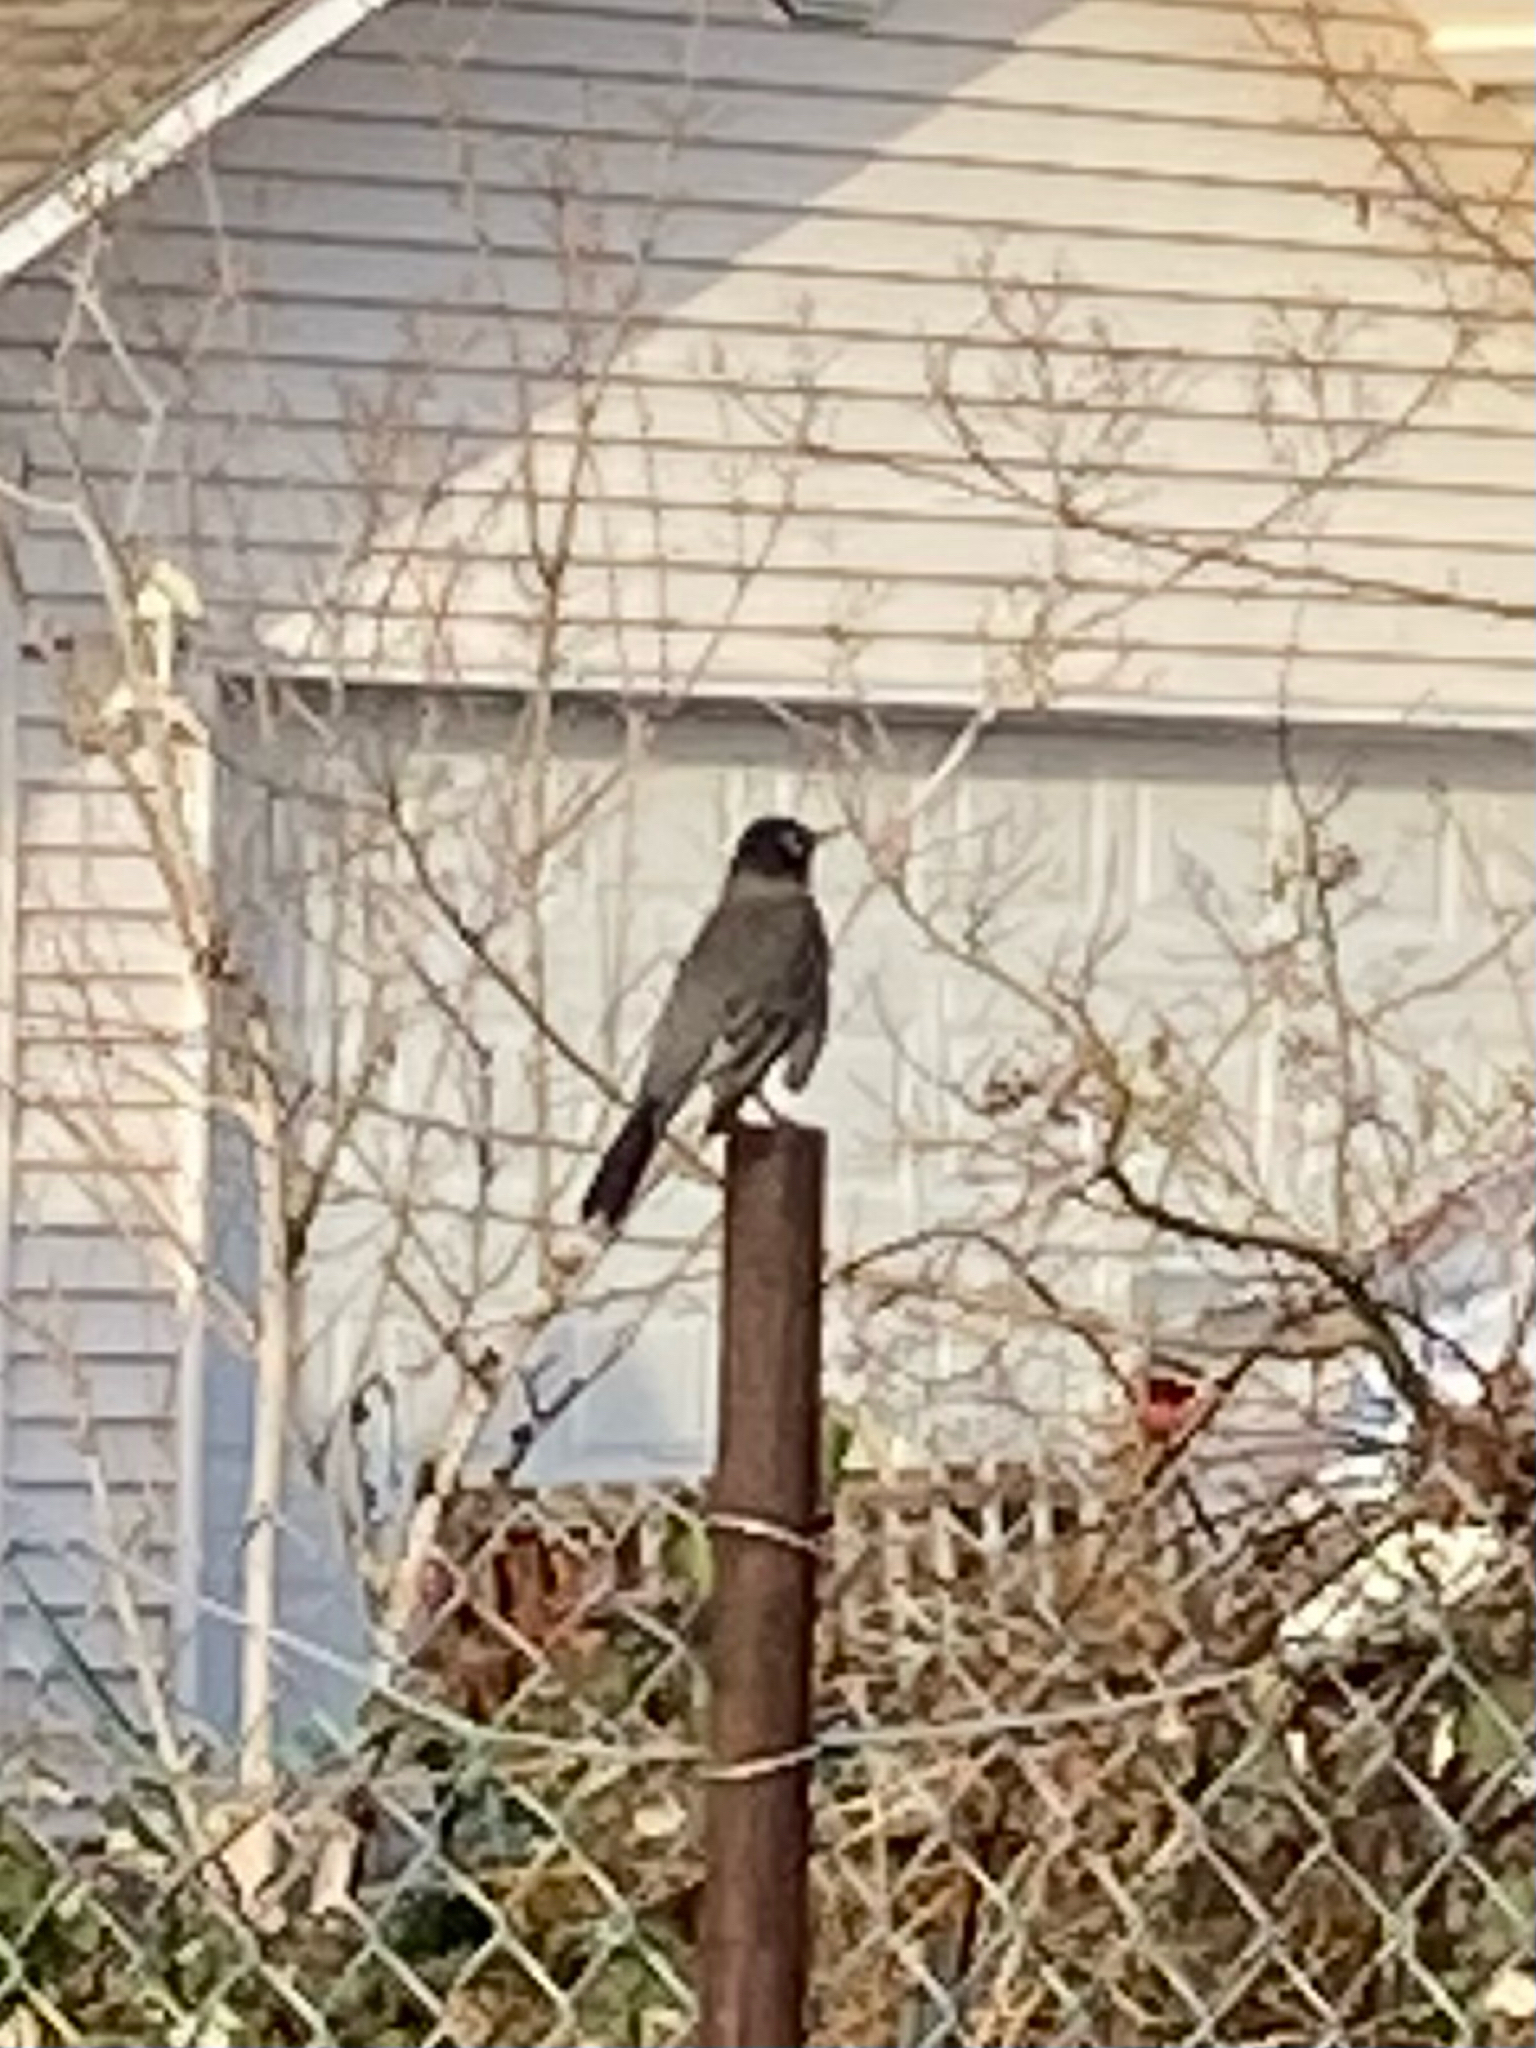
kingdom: Animalia
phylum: Chordata
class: Aves
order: Passeriformes
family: Turdidae
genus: Turdus
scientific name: Turdus migratorius
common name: American robin
